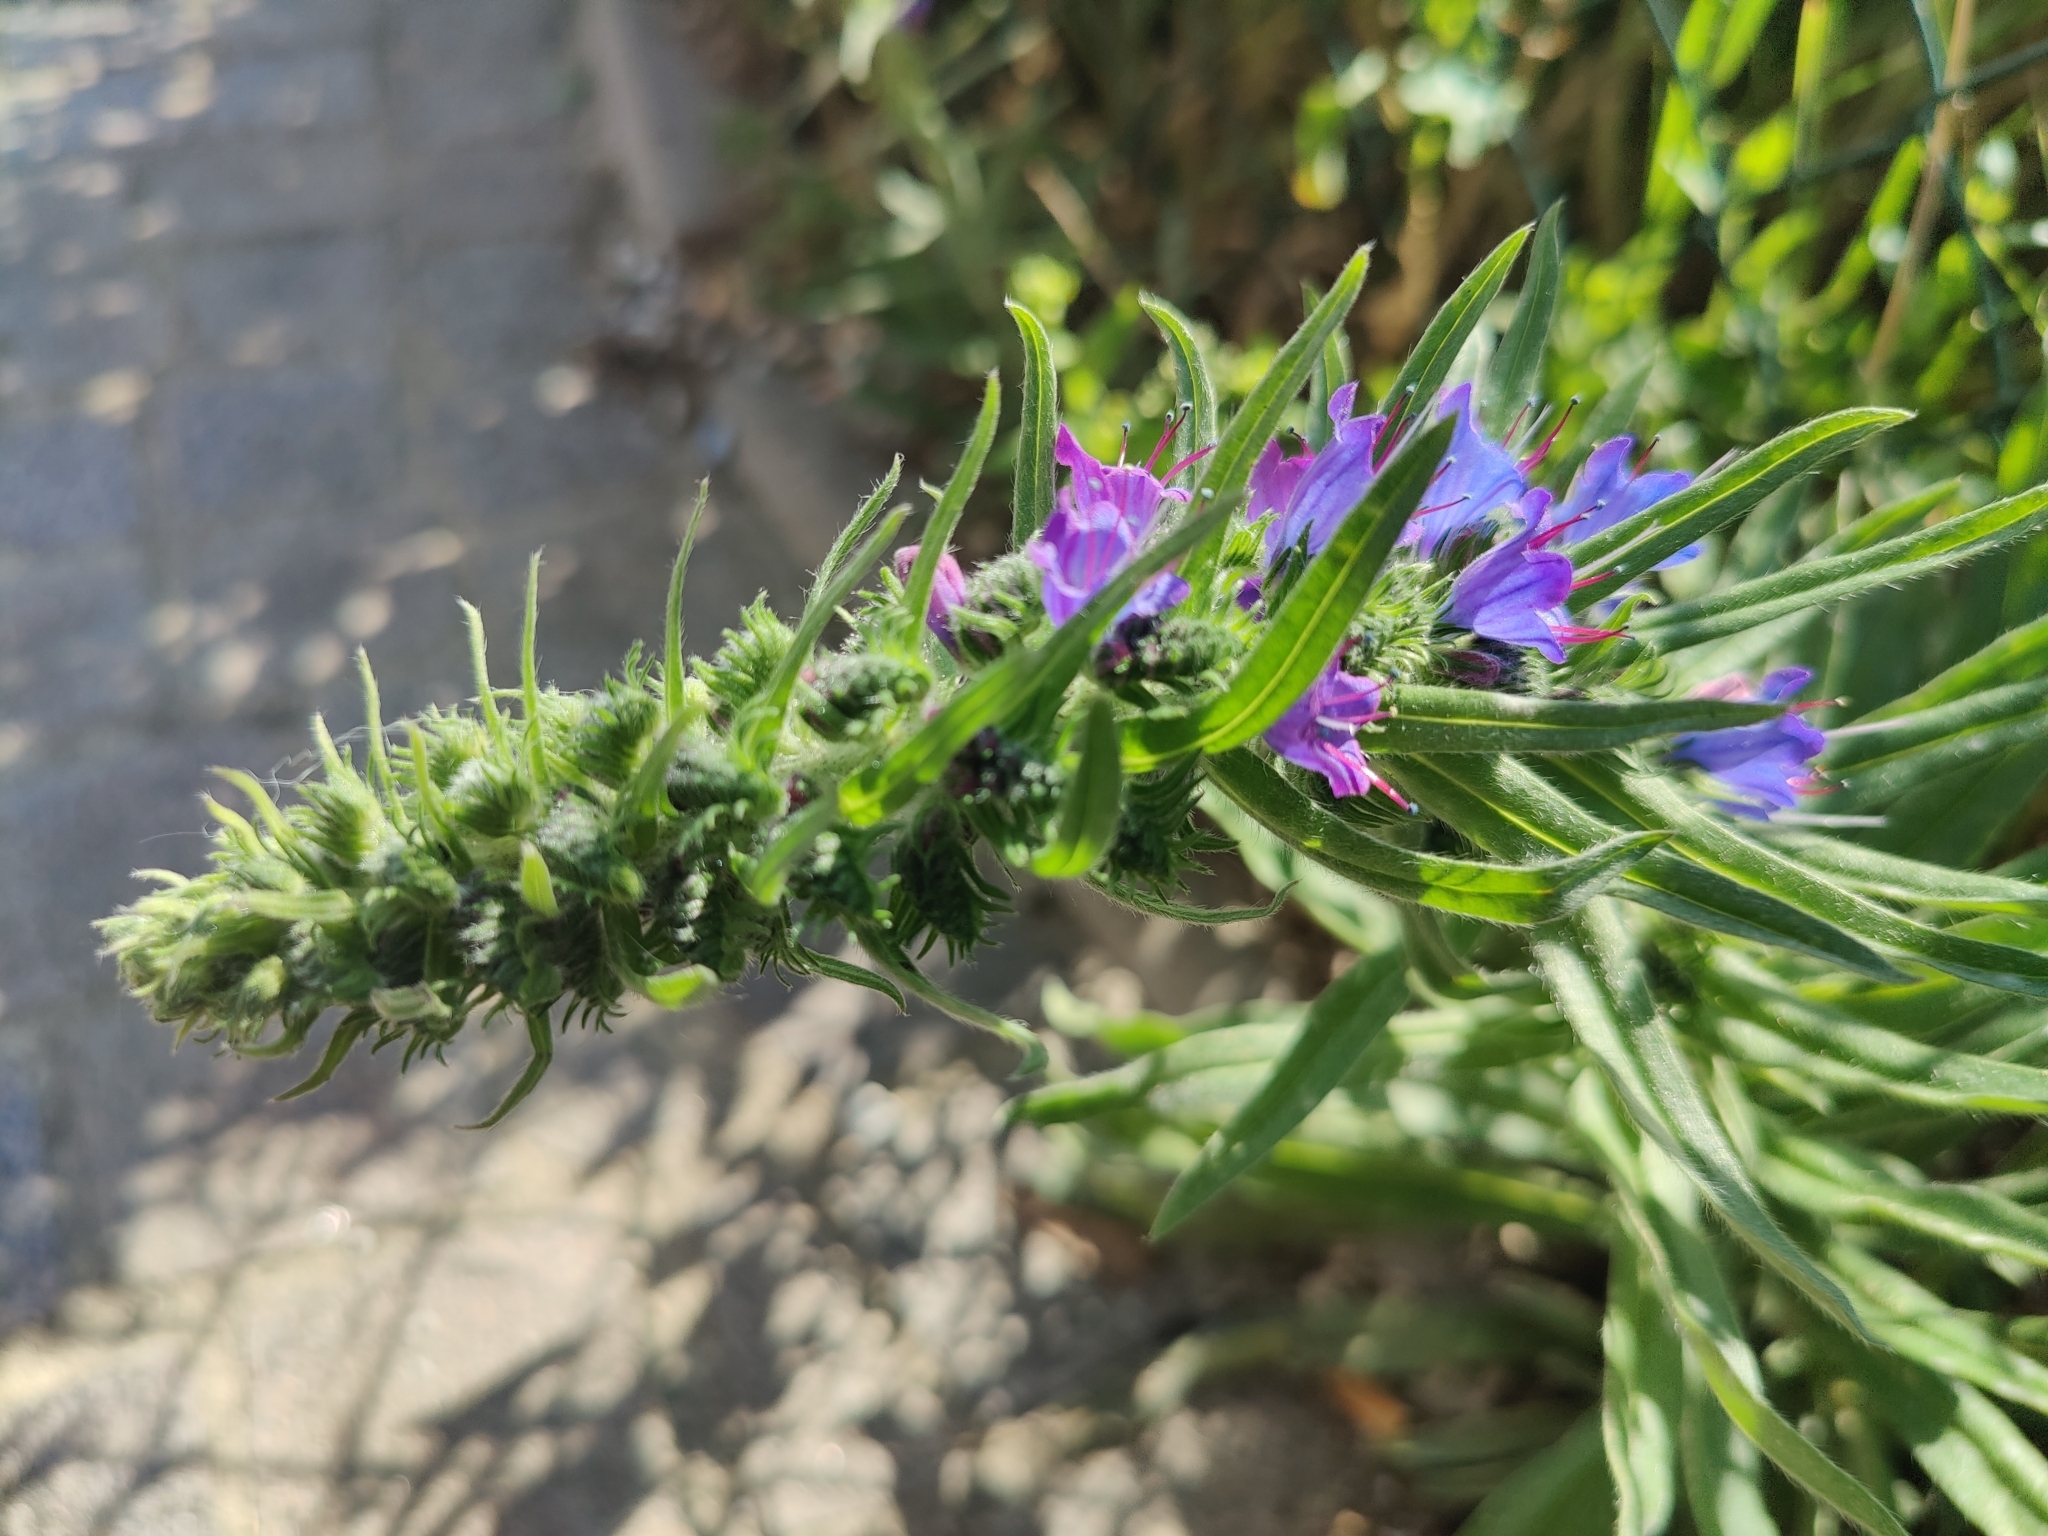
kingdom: Plantae
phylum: Tracheophyta
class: Magnoliopsida
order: Boraginales
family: Boraginaceae
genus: Echium
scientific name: Echium vulgare
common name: Common viper's bugloss
